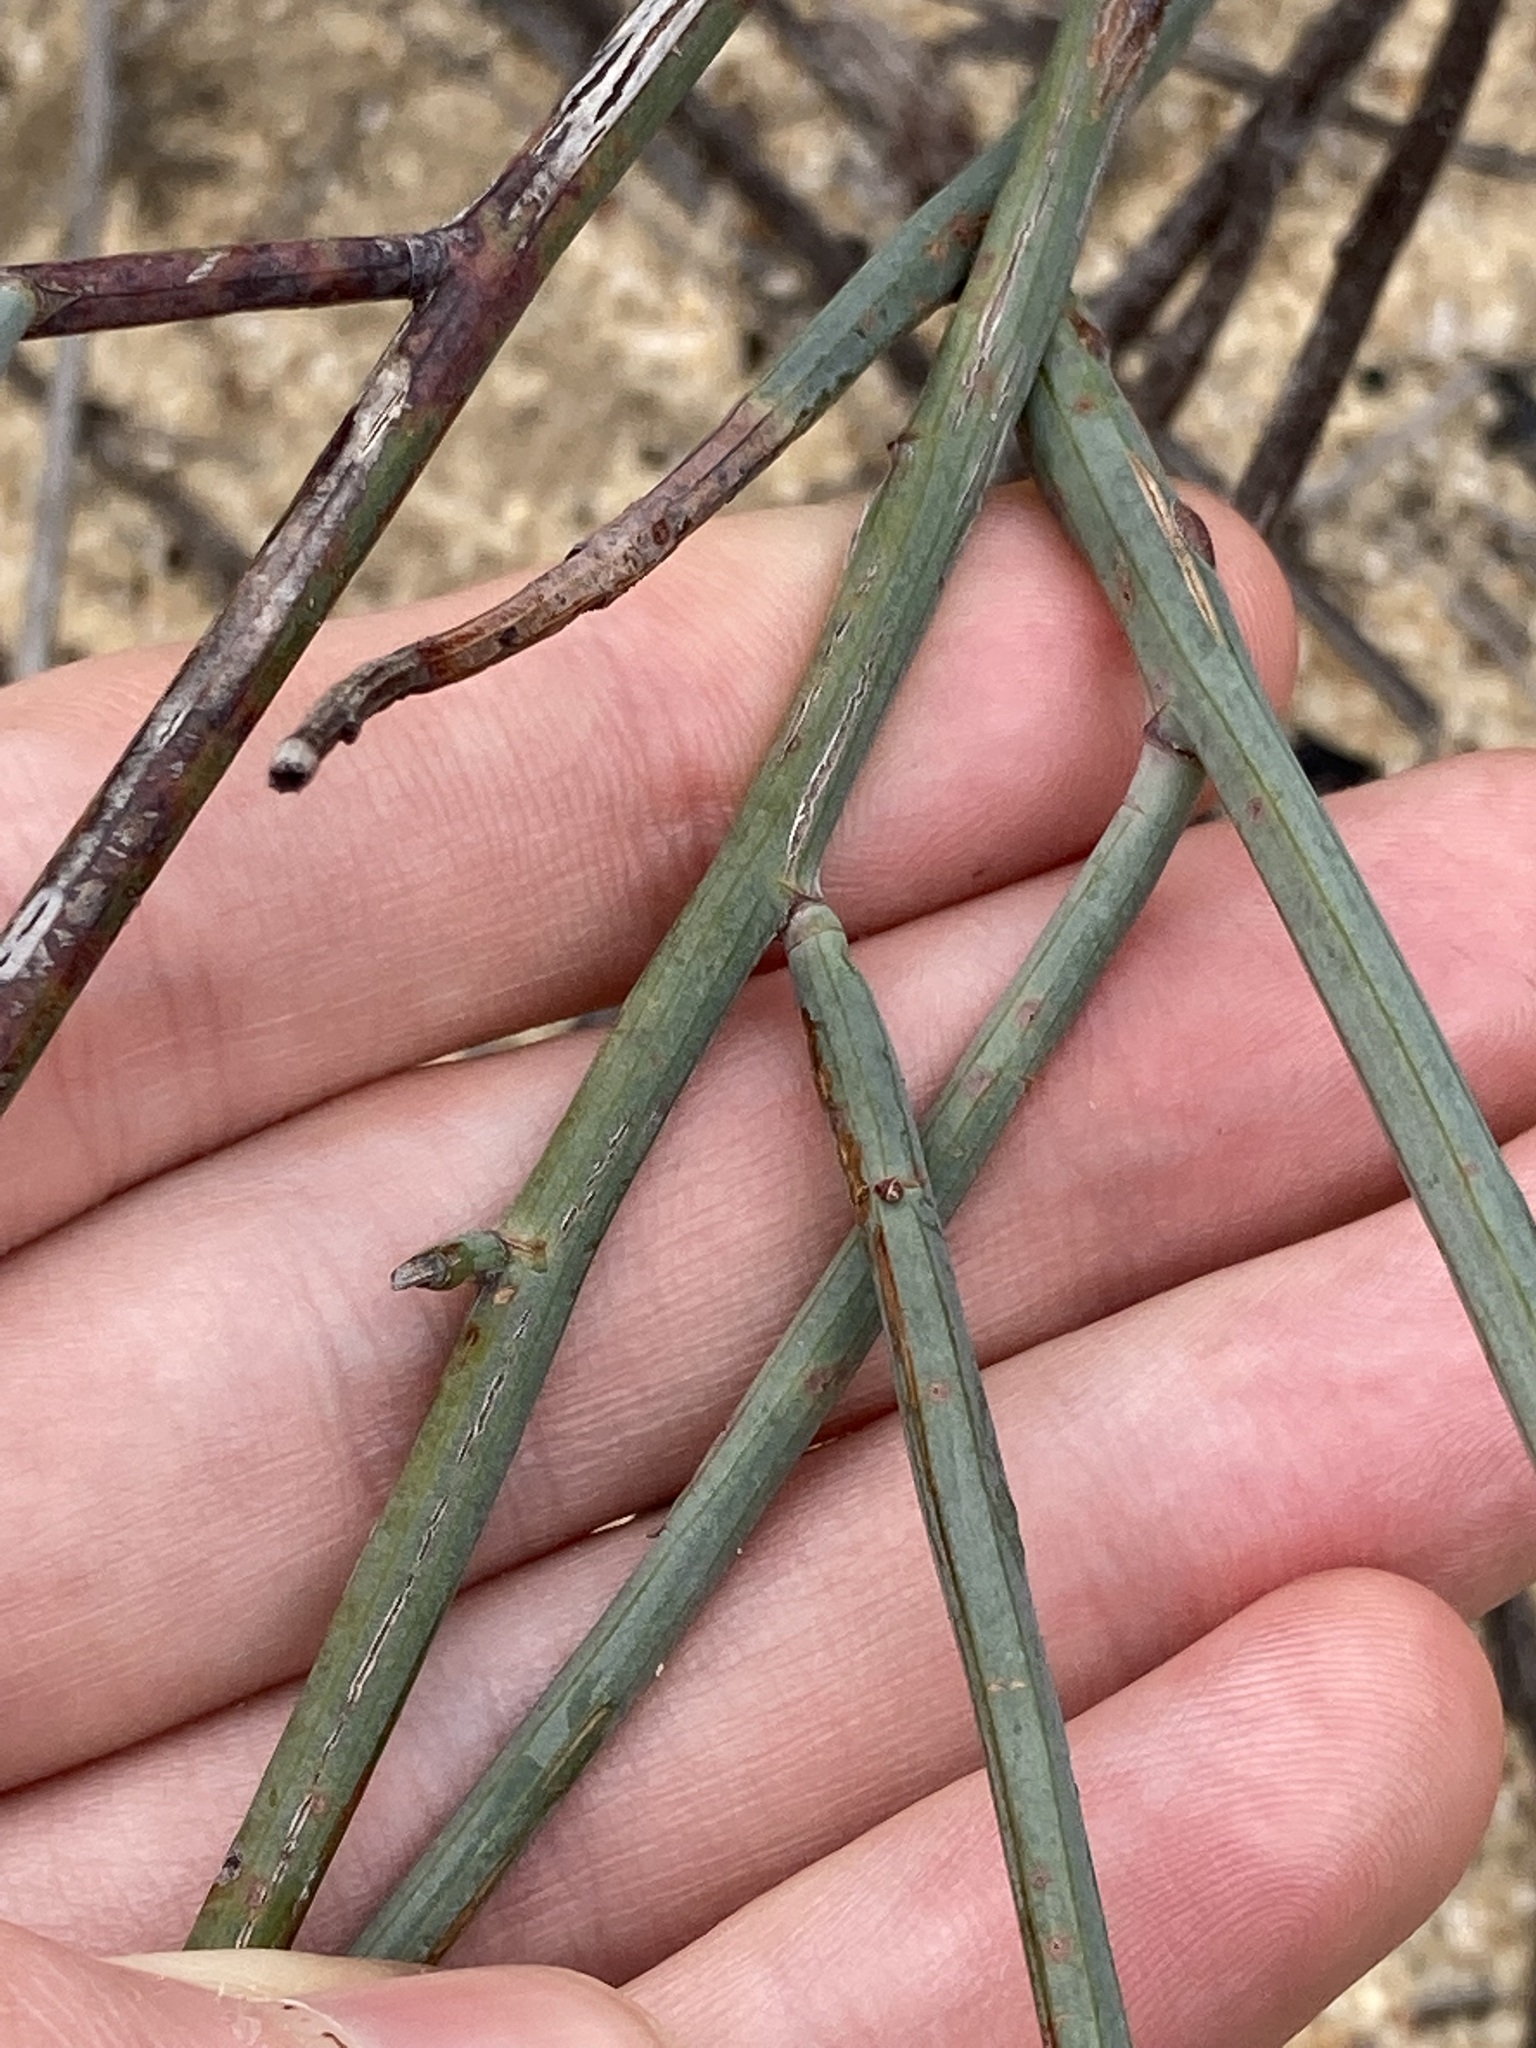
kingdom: Plantae
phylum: Tracheophyta
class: Magnoliopsida
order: Fabales
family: Fabaceae
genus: Acacia
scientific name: Acacia restiacea
